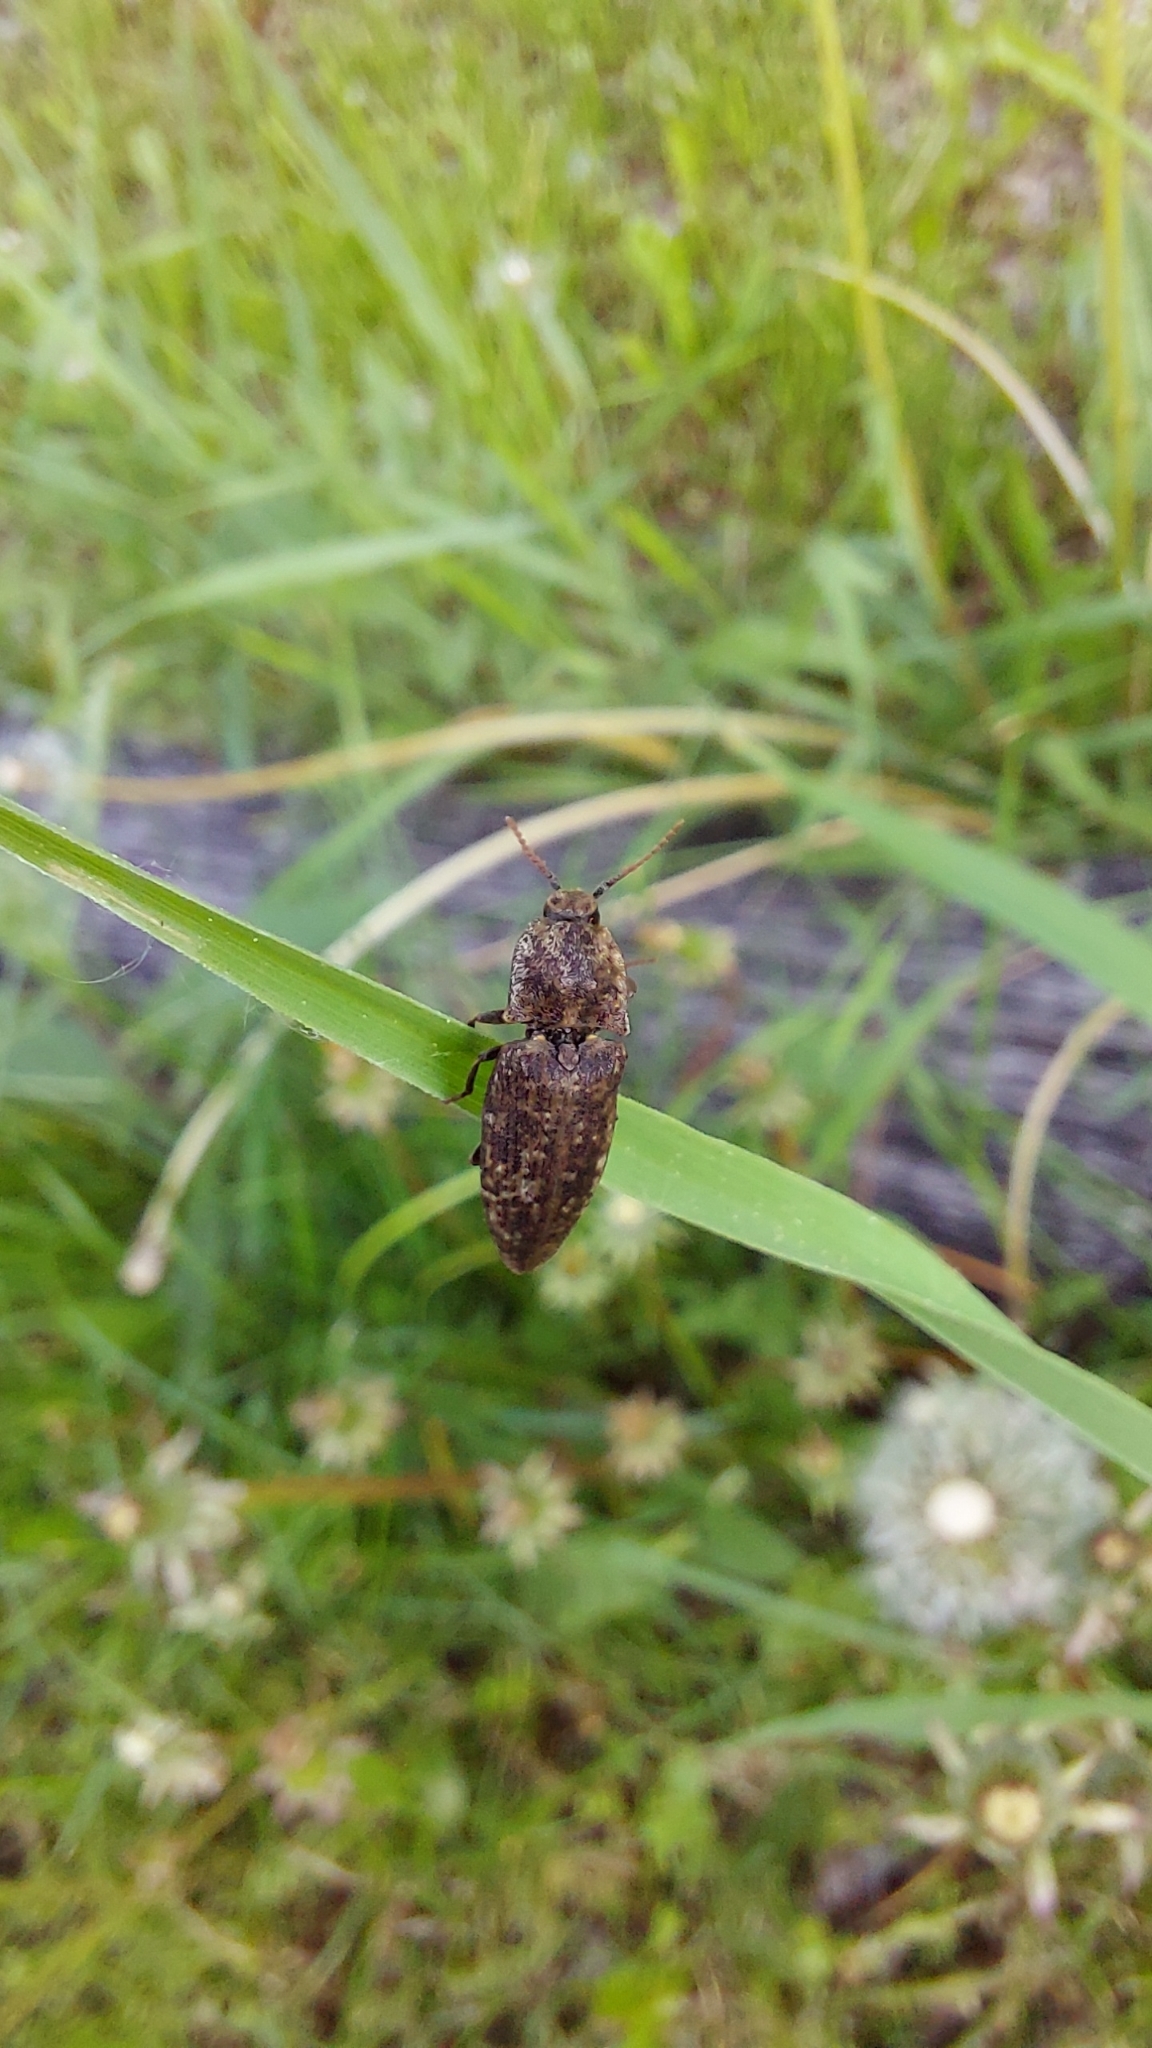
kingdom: Animalia
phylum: Arthropoda
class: Insecta
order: Coleoptera
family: Elateridae
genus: Agrypnus
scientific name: Agrypnus murinus
